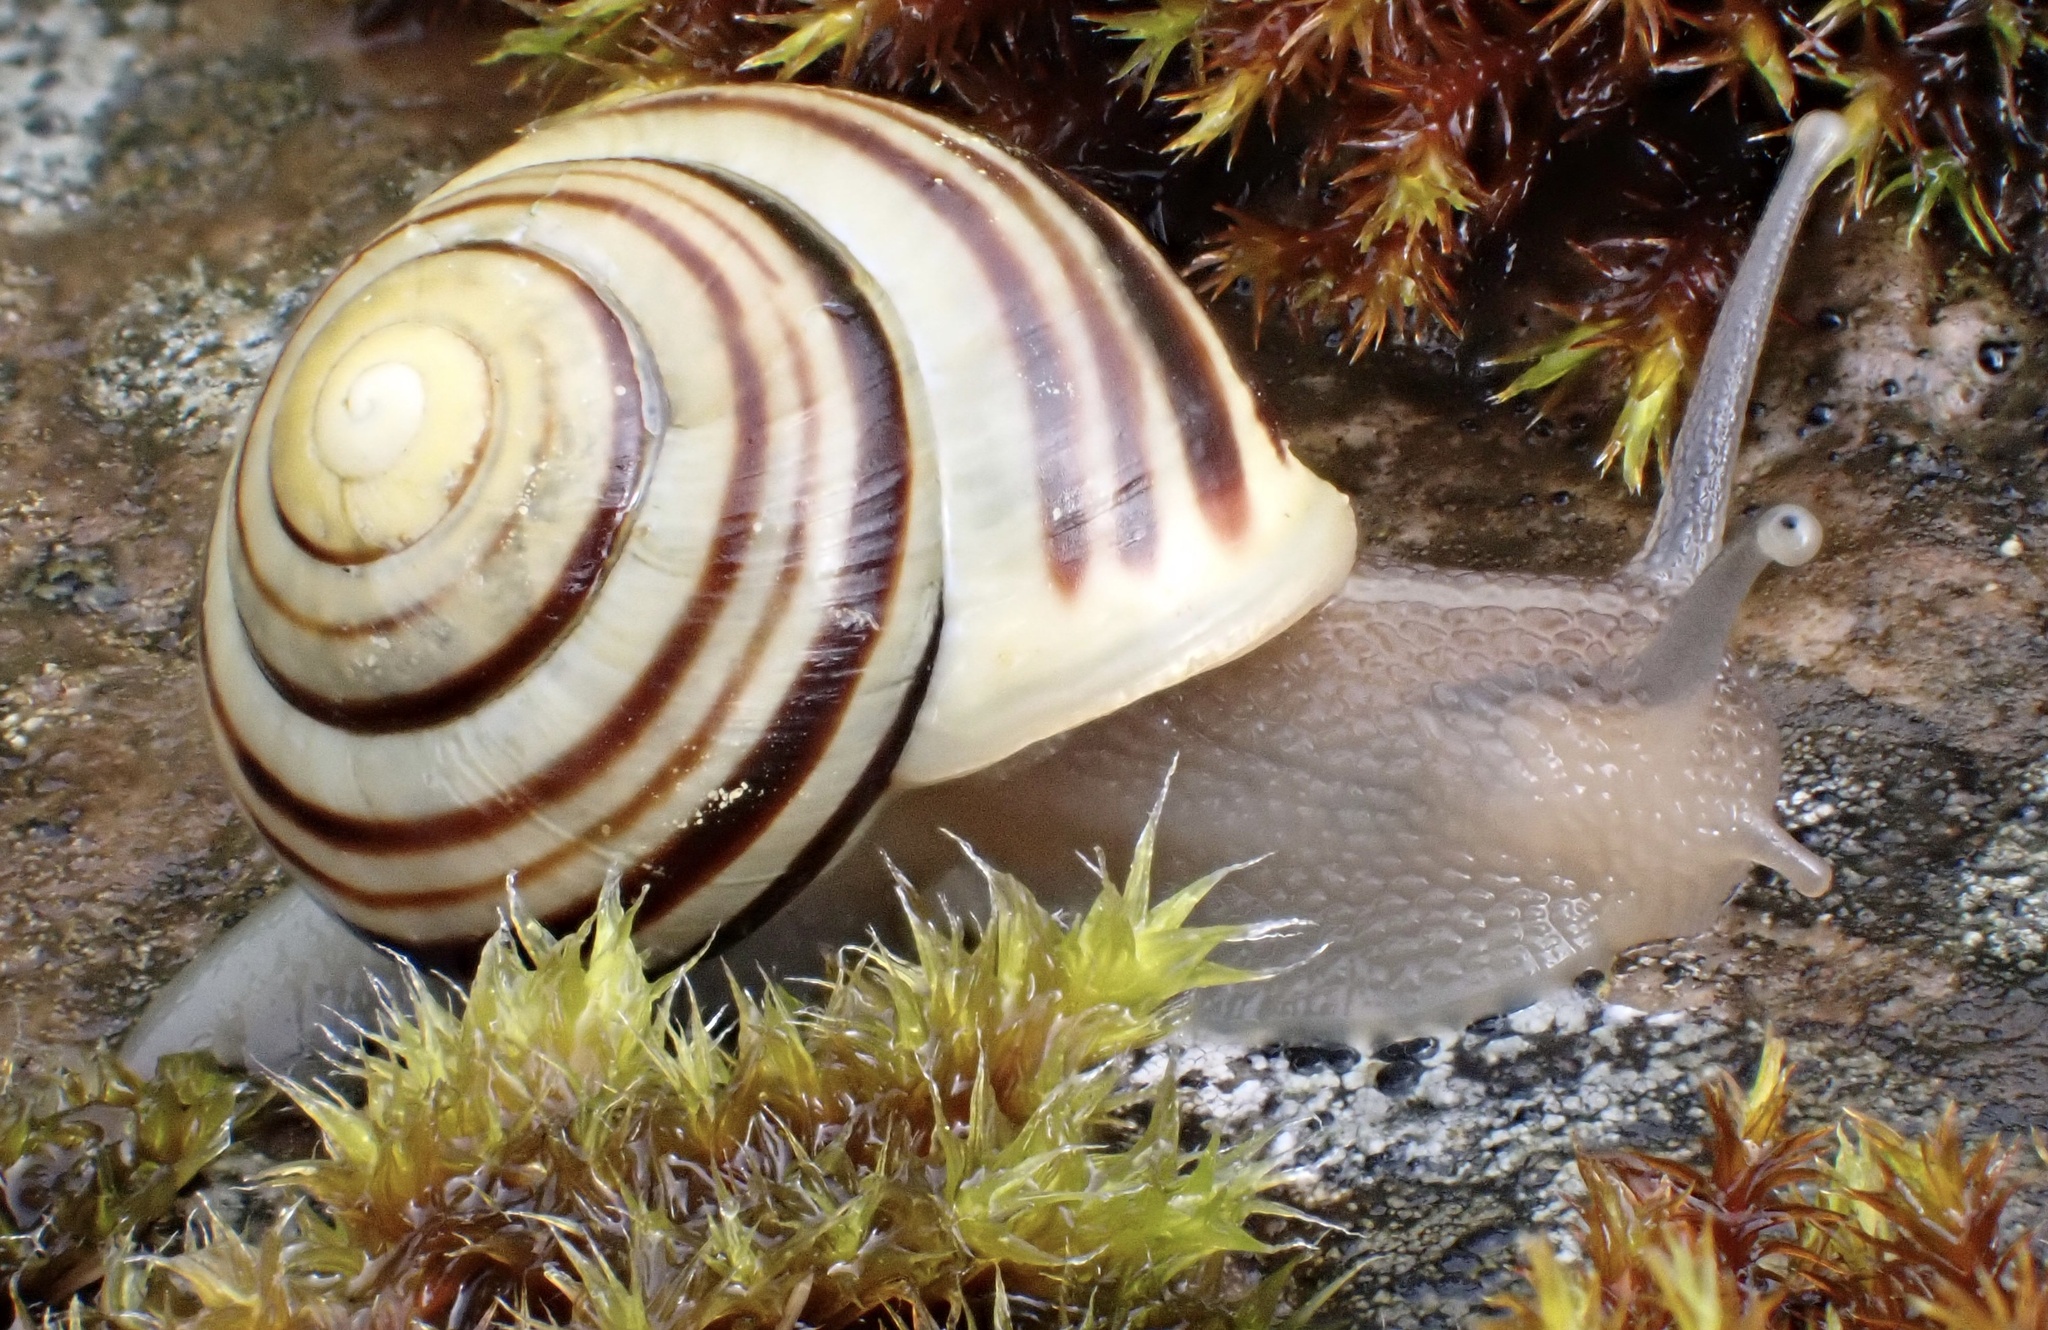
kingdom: Animalia
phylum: Mollusca
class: Gastropoda
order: Stylommatophora
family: Helicidae
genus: Cepaea
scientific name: Cepaea hortensis
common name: White-lip gardensnail
